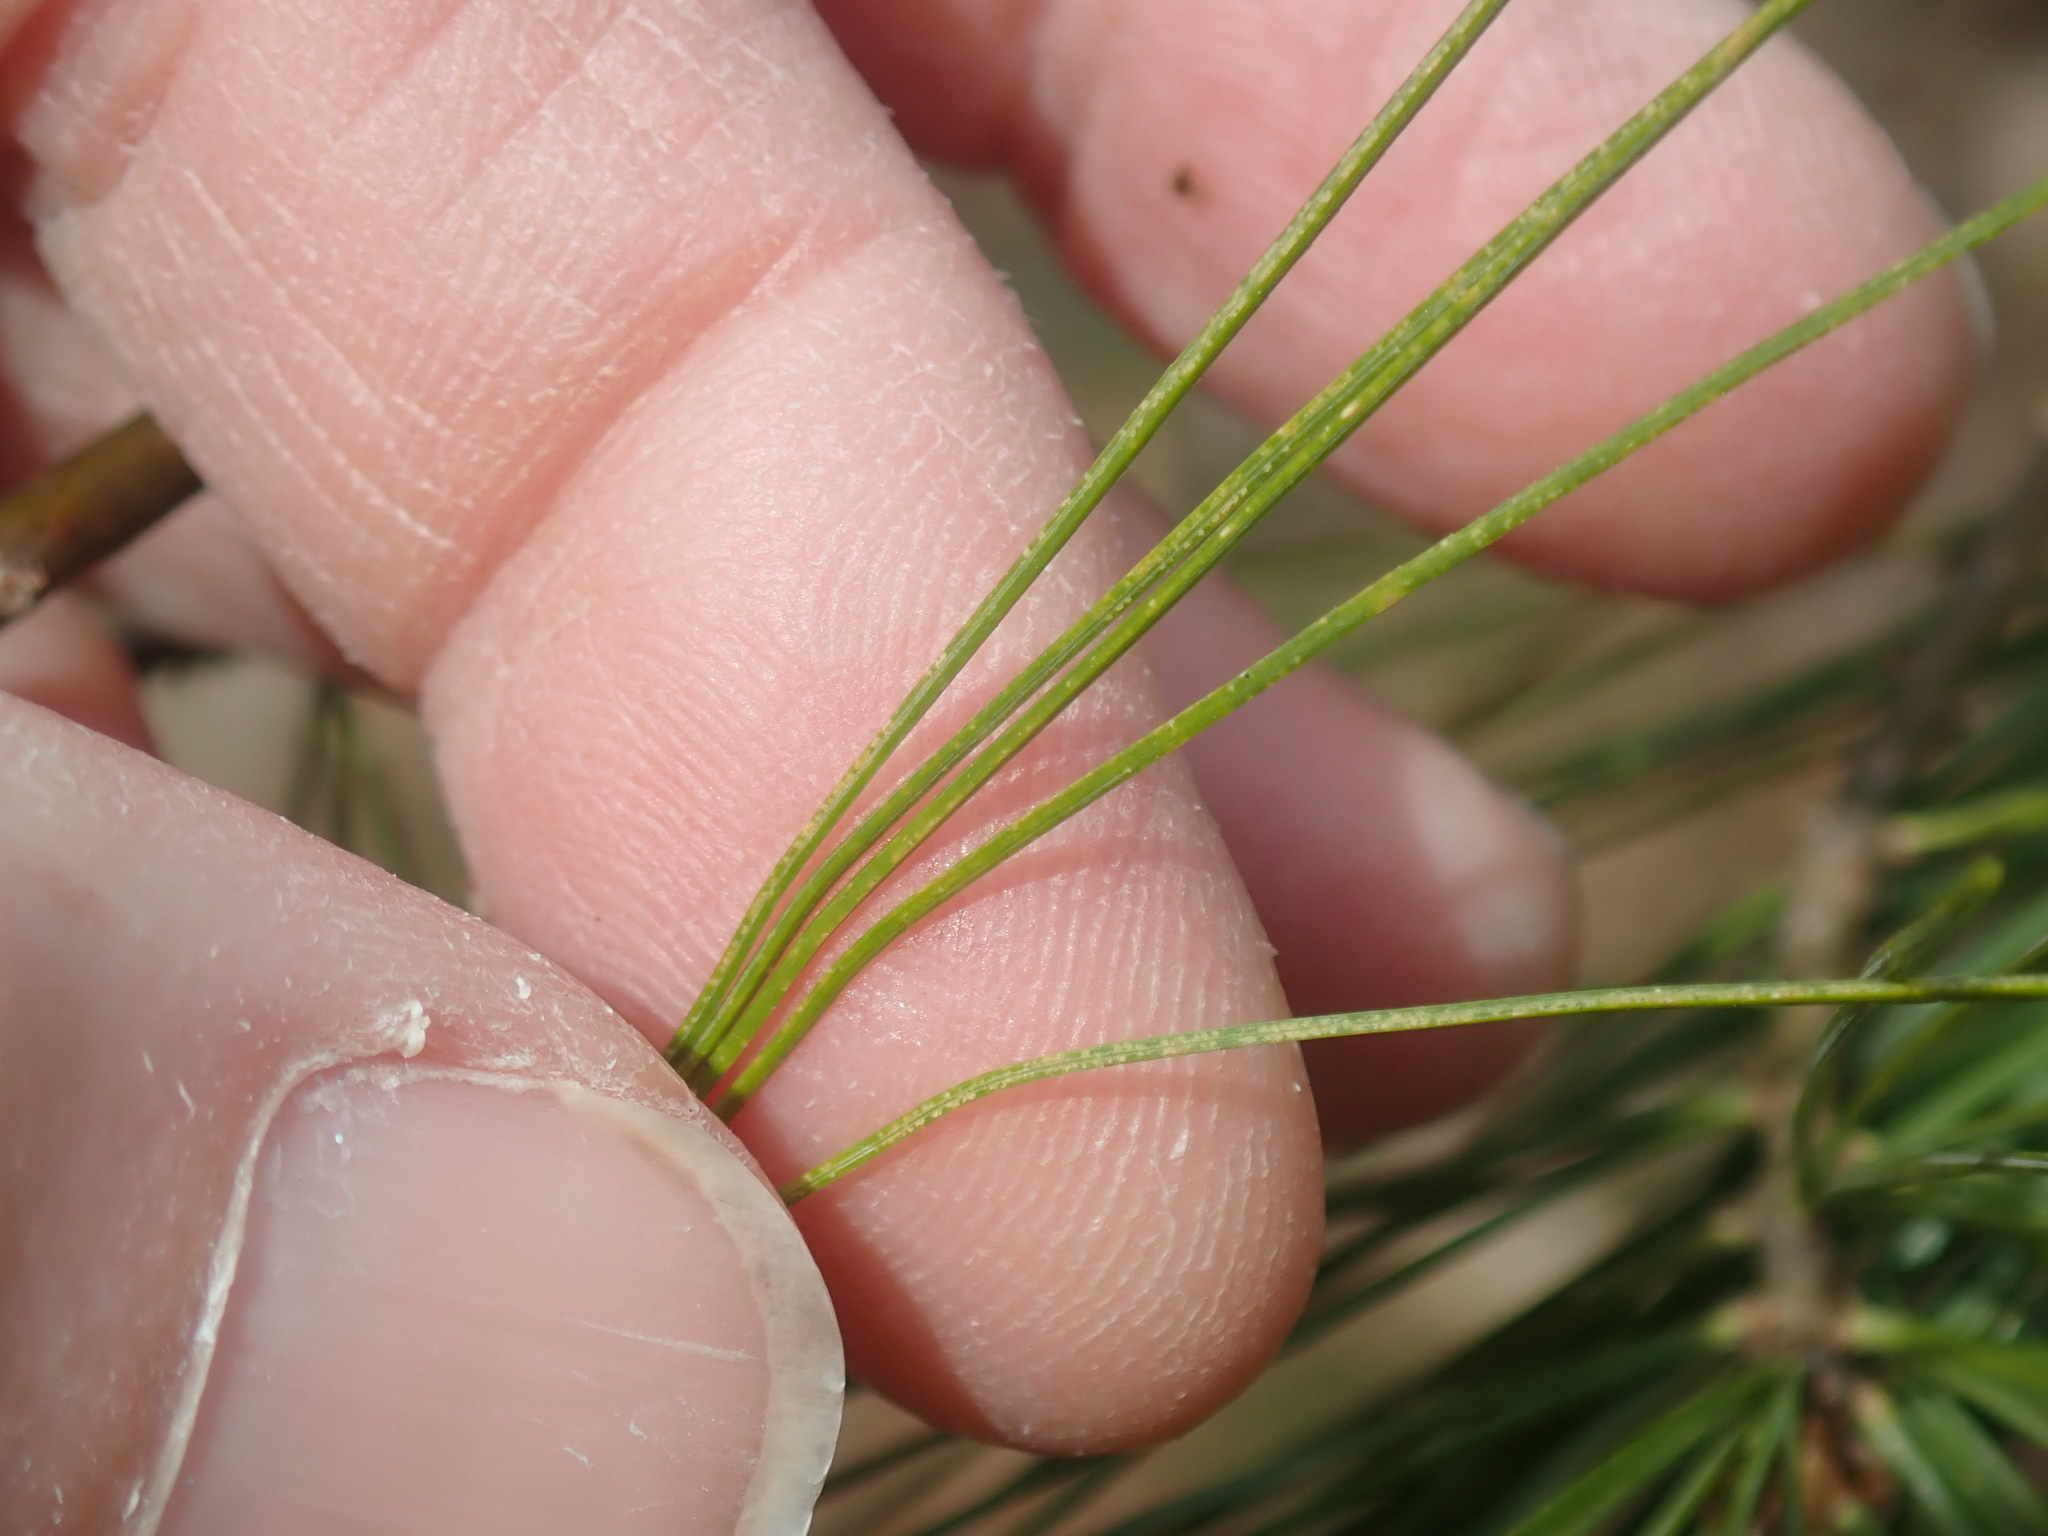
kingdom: Plantae
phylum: Tracheophyta
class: Pinopsida
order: Pinales
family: Pinaceae
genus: Pinus
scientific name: Pinus strobus
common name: Weymouth pine
